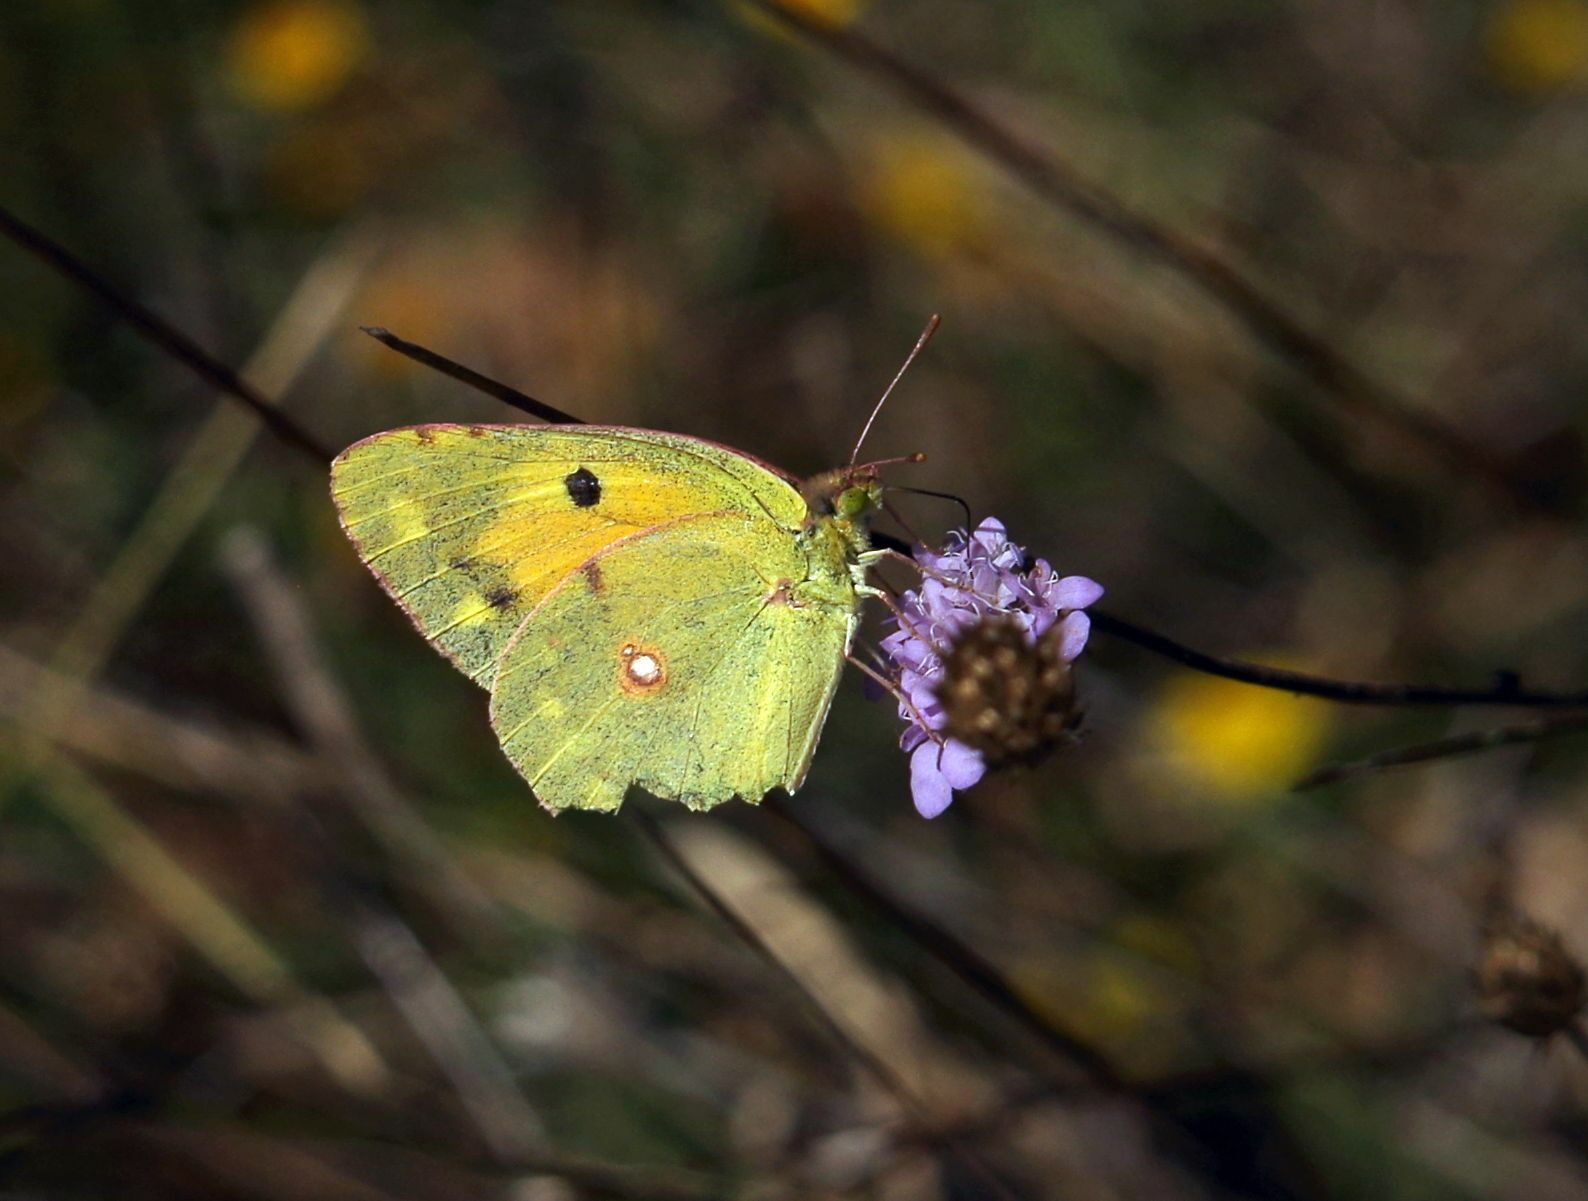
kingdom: Animalia
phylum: Arthropoda
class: Insecta
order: Lepidoptera
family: Pieridae
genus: Colias
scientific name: Colias croceus
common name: Clouded yellow
